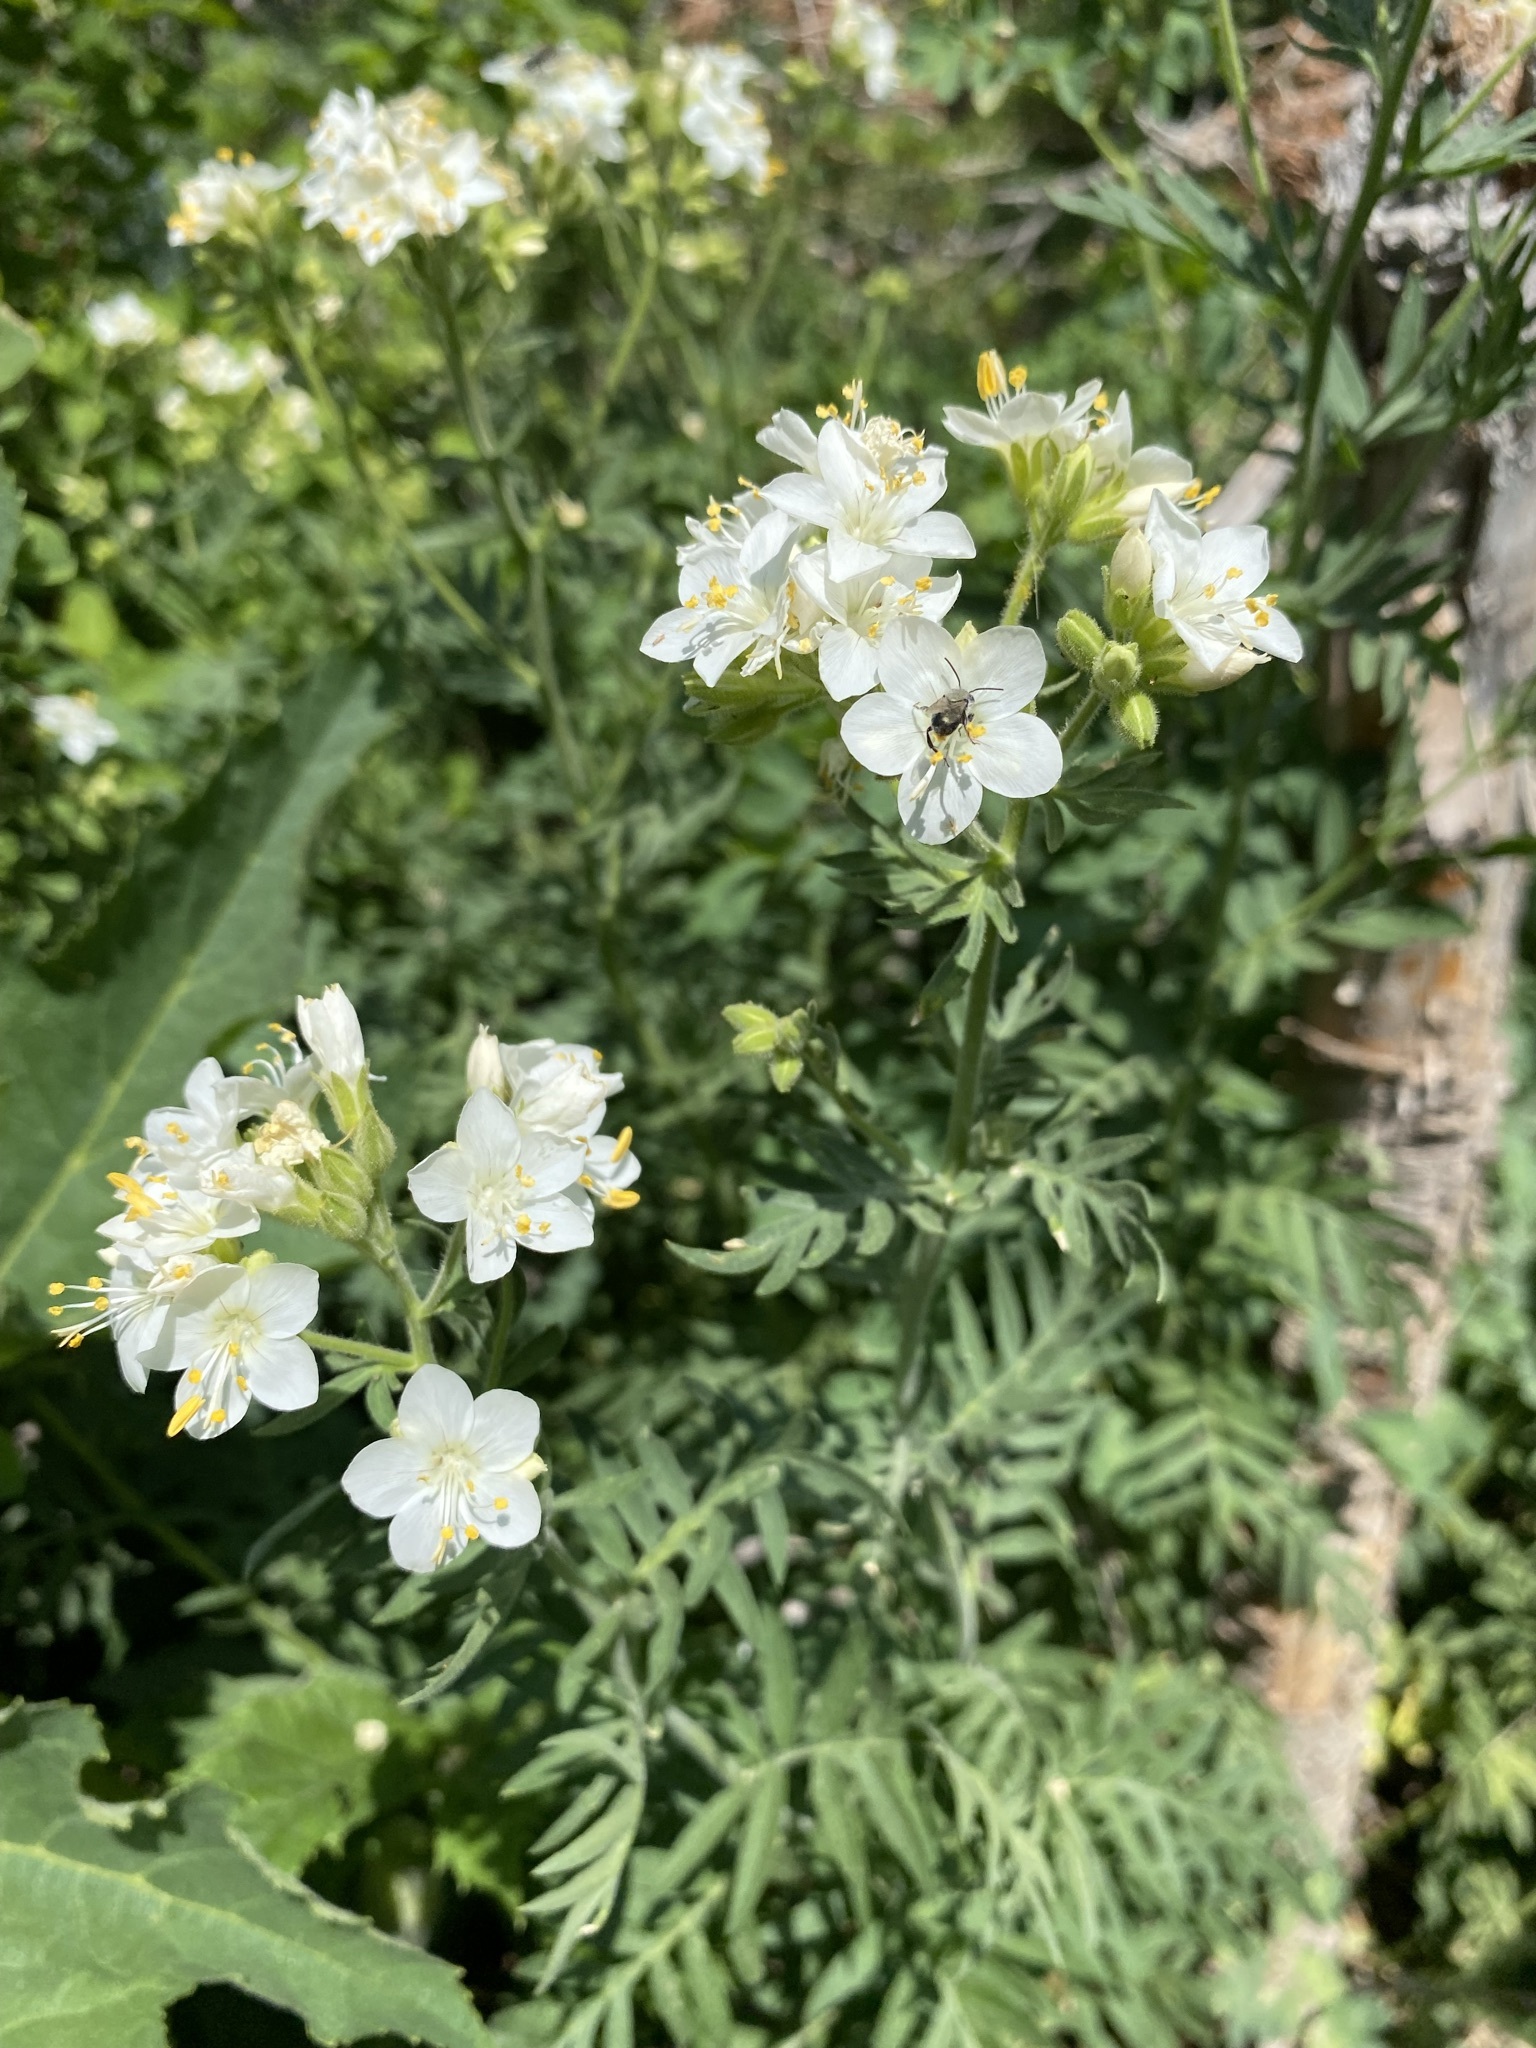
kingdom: Plantae
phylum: Tracheophyta
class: Magnoliopsida
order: Ericales
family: Polemoniaceae
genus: Polemonium
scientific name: Polemonium foliosissimum
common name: Leafy jacob's-ladder
